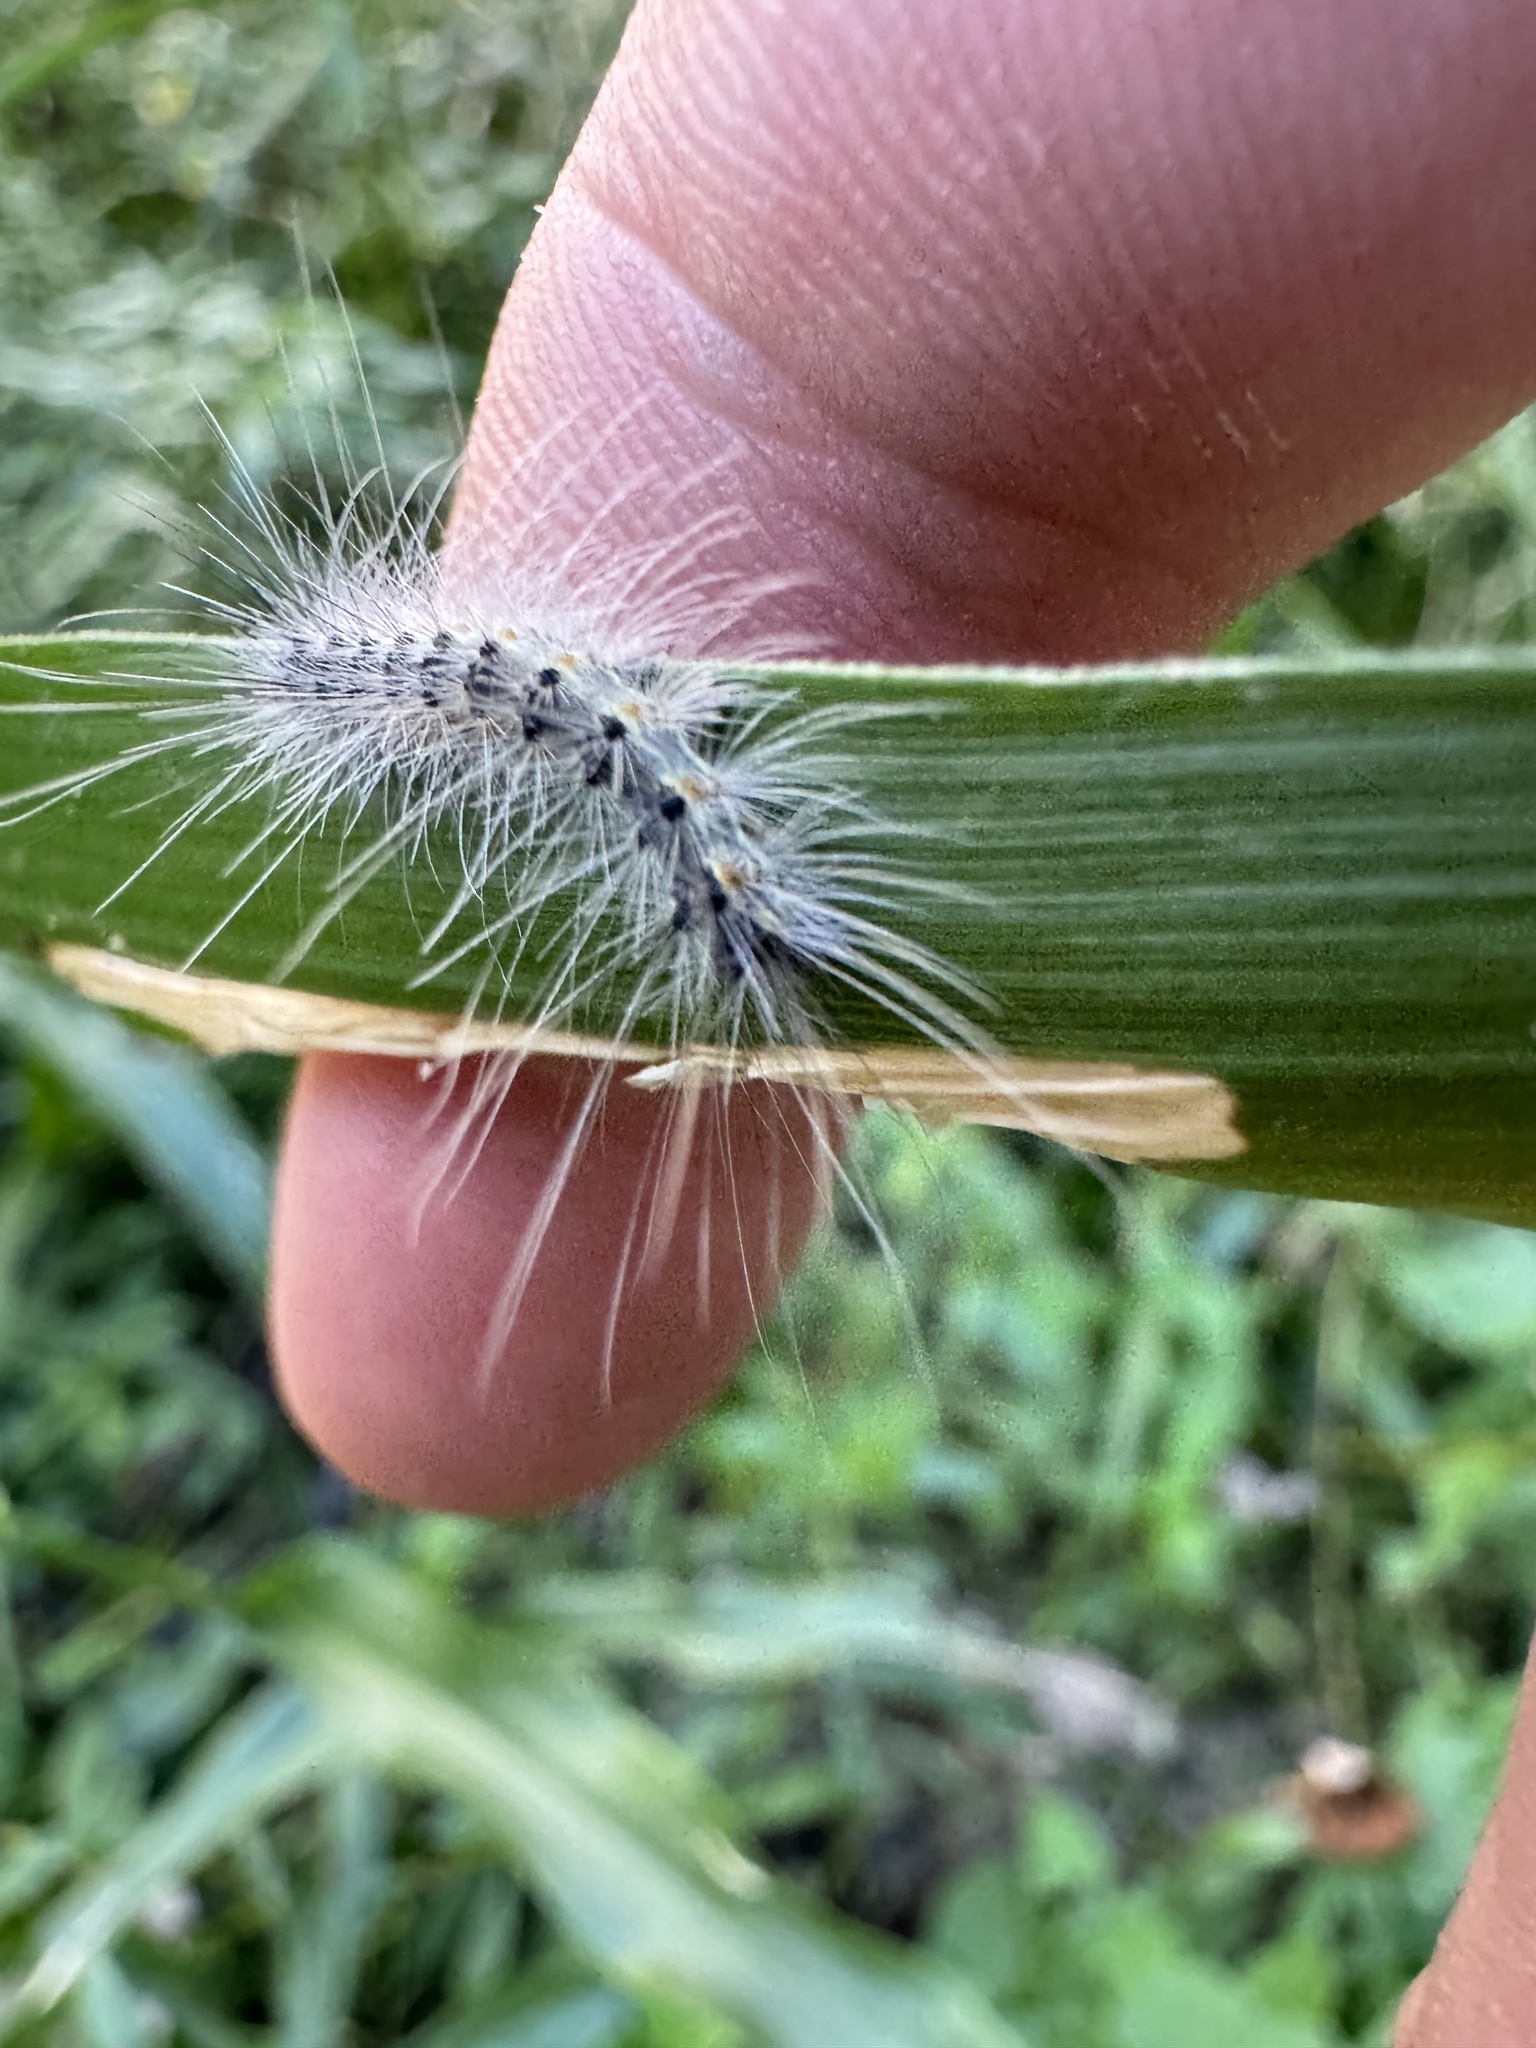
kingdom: Animalia
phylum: Arthropoda
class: Insecta
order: Lepidoptera
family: Erebidae
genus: Hyphantria
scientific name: Hyphantria cunea
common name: American white moth
